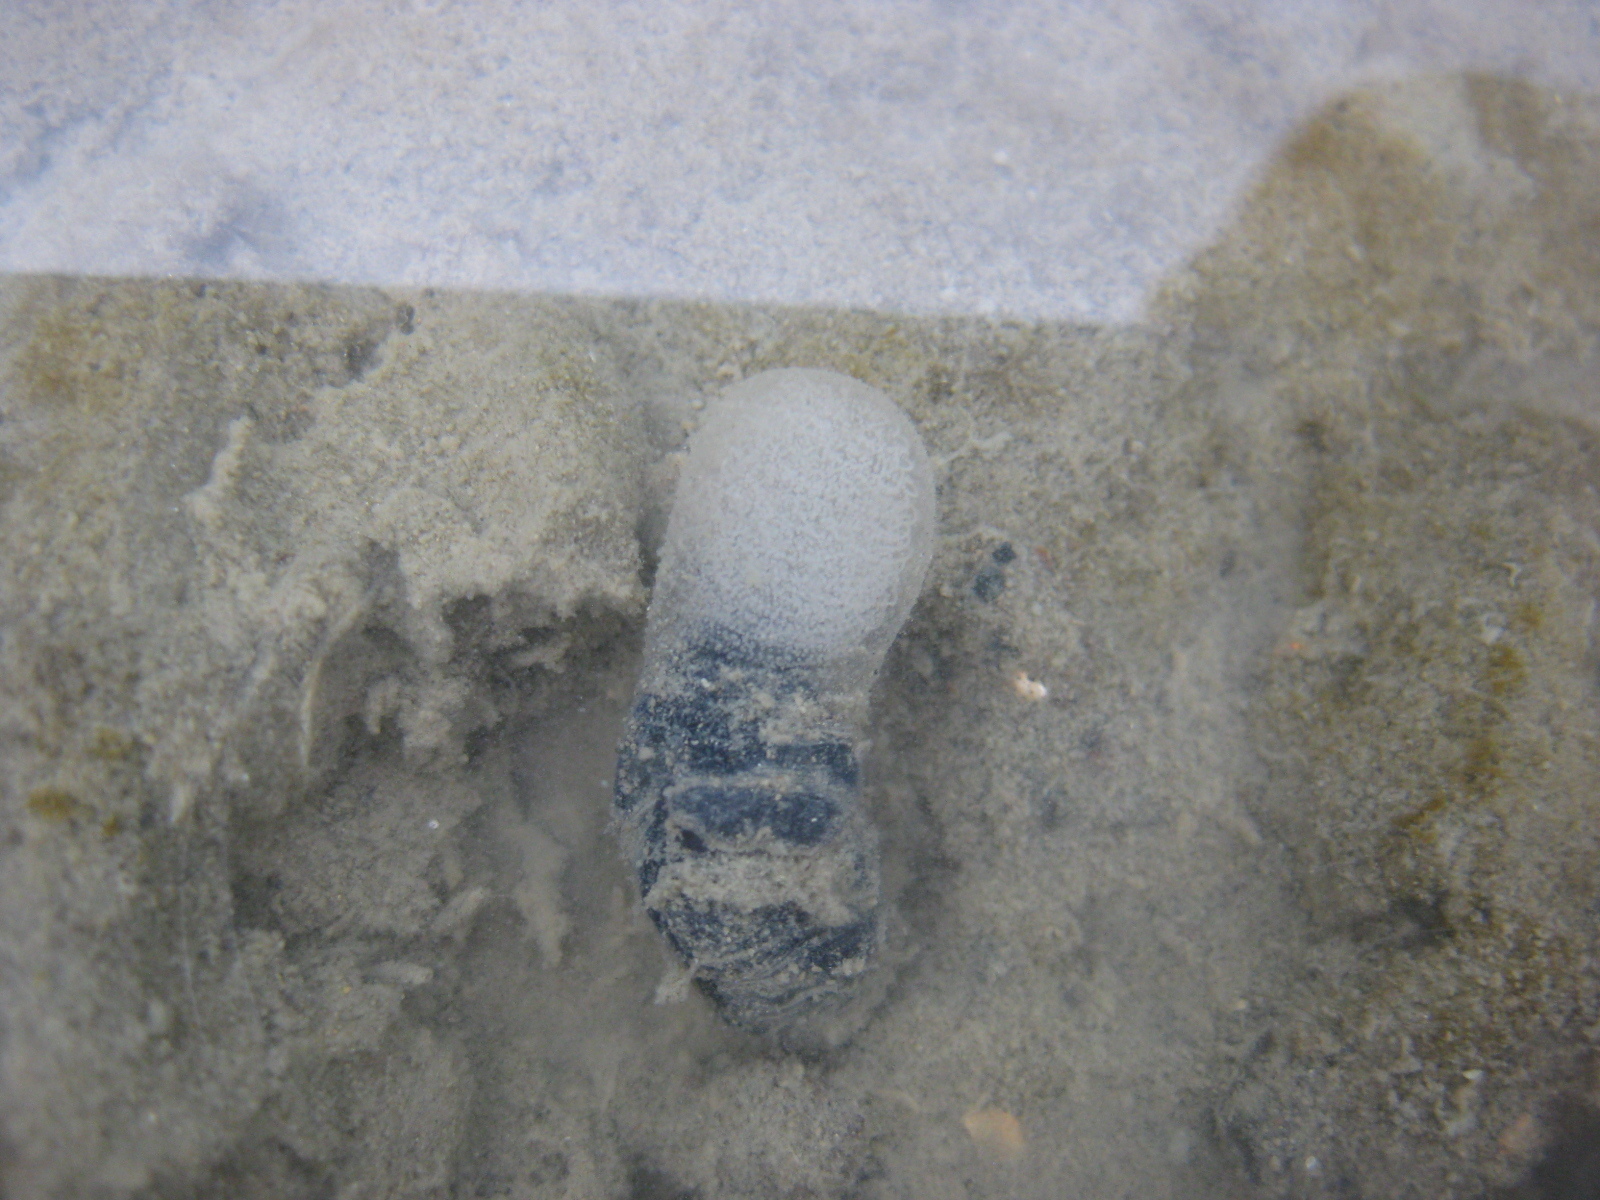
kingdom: Animalia
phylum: Mollusca
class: Gastropoda
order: Cephalaspidea
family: Aglajidae
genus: Melanochlamys
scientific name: Melanochlamys cylindrica
